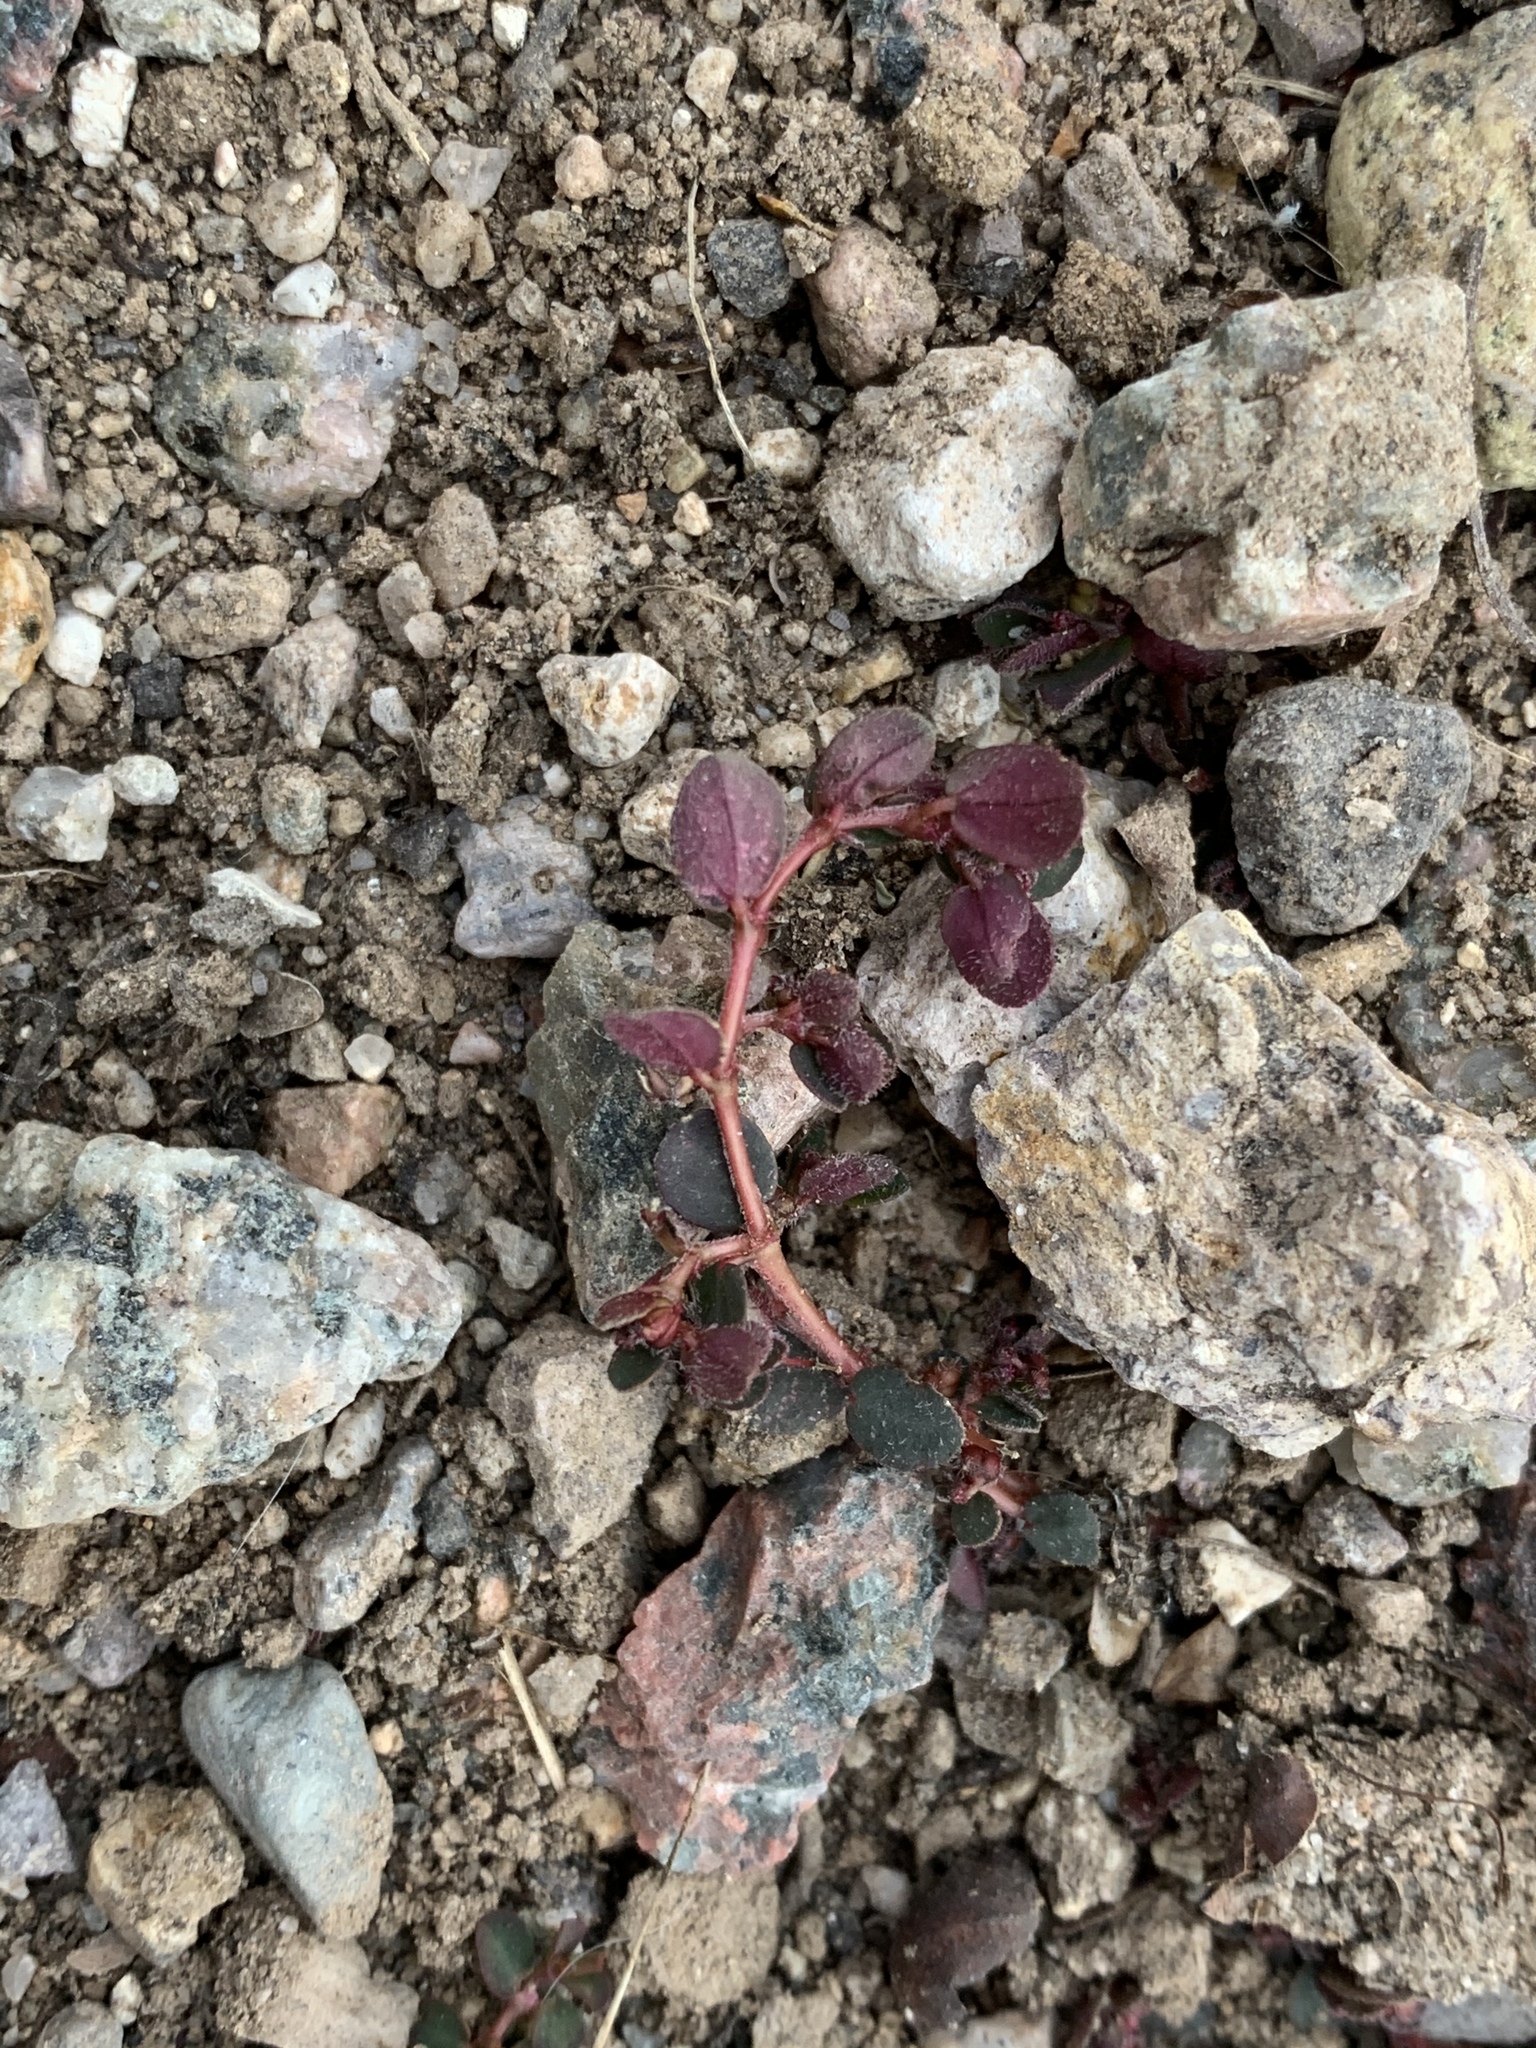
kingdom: Plantae
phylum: Tracheophyta
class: Magnoliopsida
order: Malpighiales
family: Euphorbiaceae
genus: Euphorbia
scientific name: Euphorbia serpens
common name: Matted sandmat
